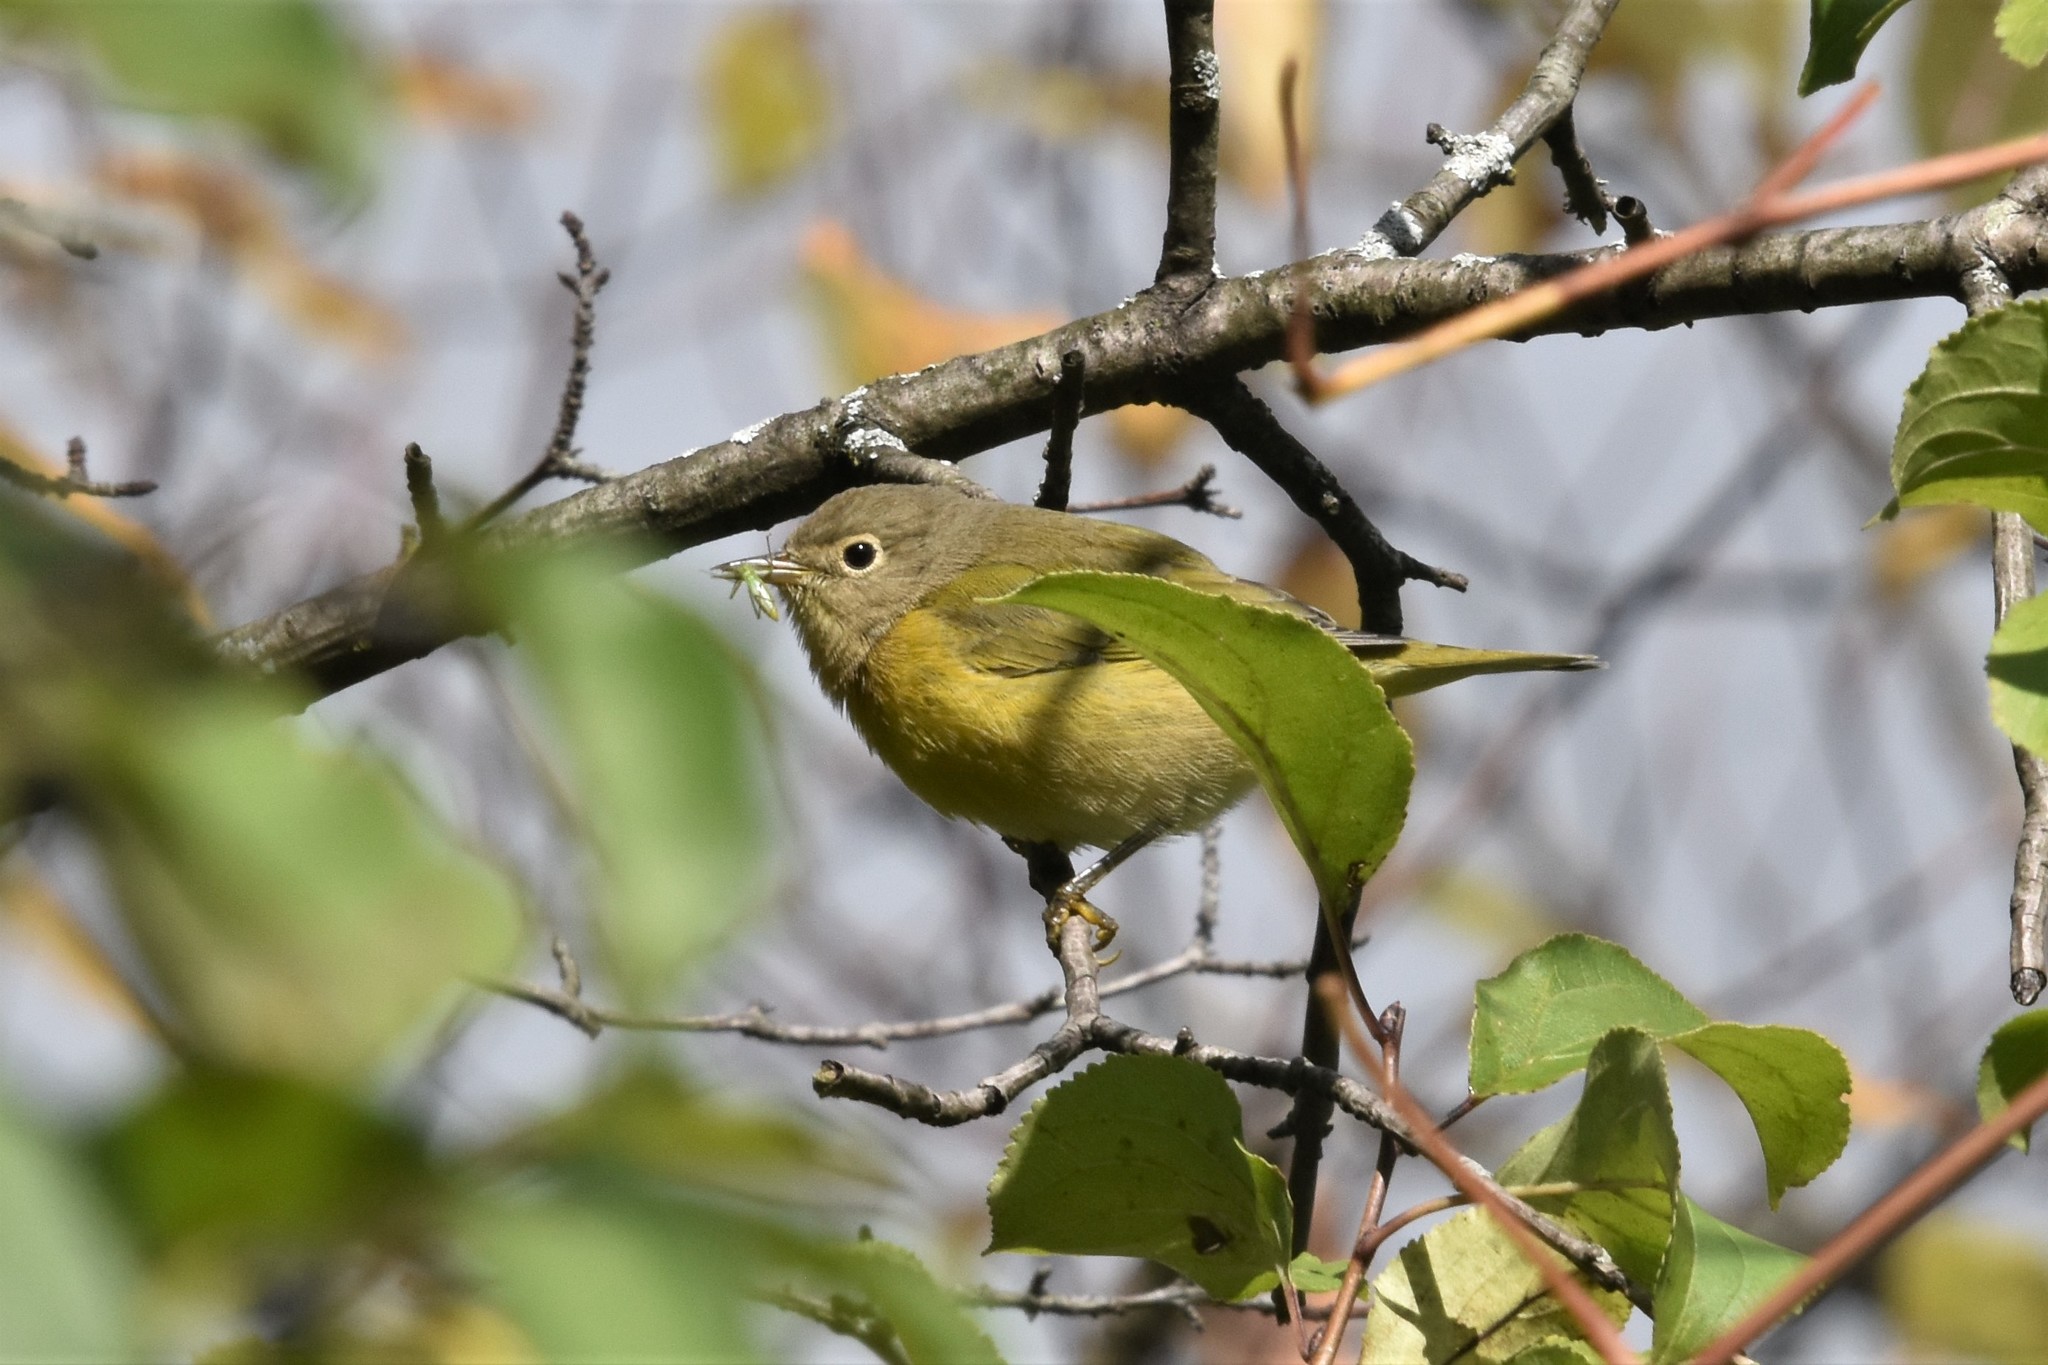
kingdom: Animalia
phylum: Chordata
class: Aves
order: Passeriformes
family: Parulidae
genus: Leiothlypis
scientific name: Leiothlypis ruficapilla
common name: Nashville warbler
